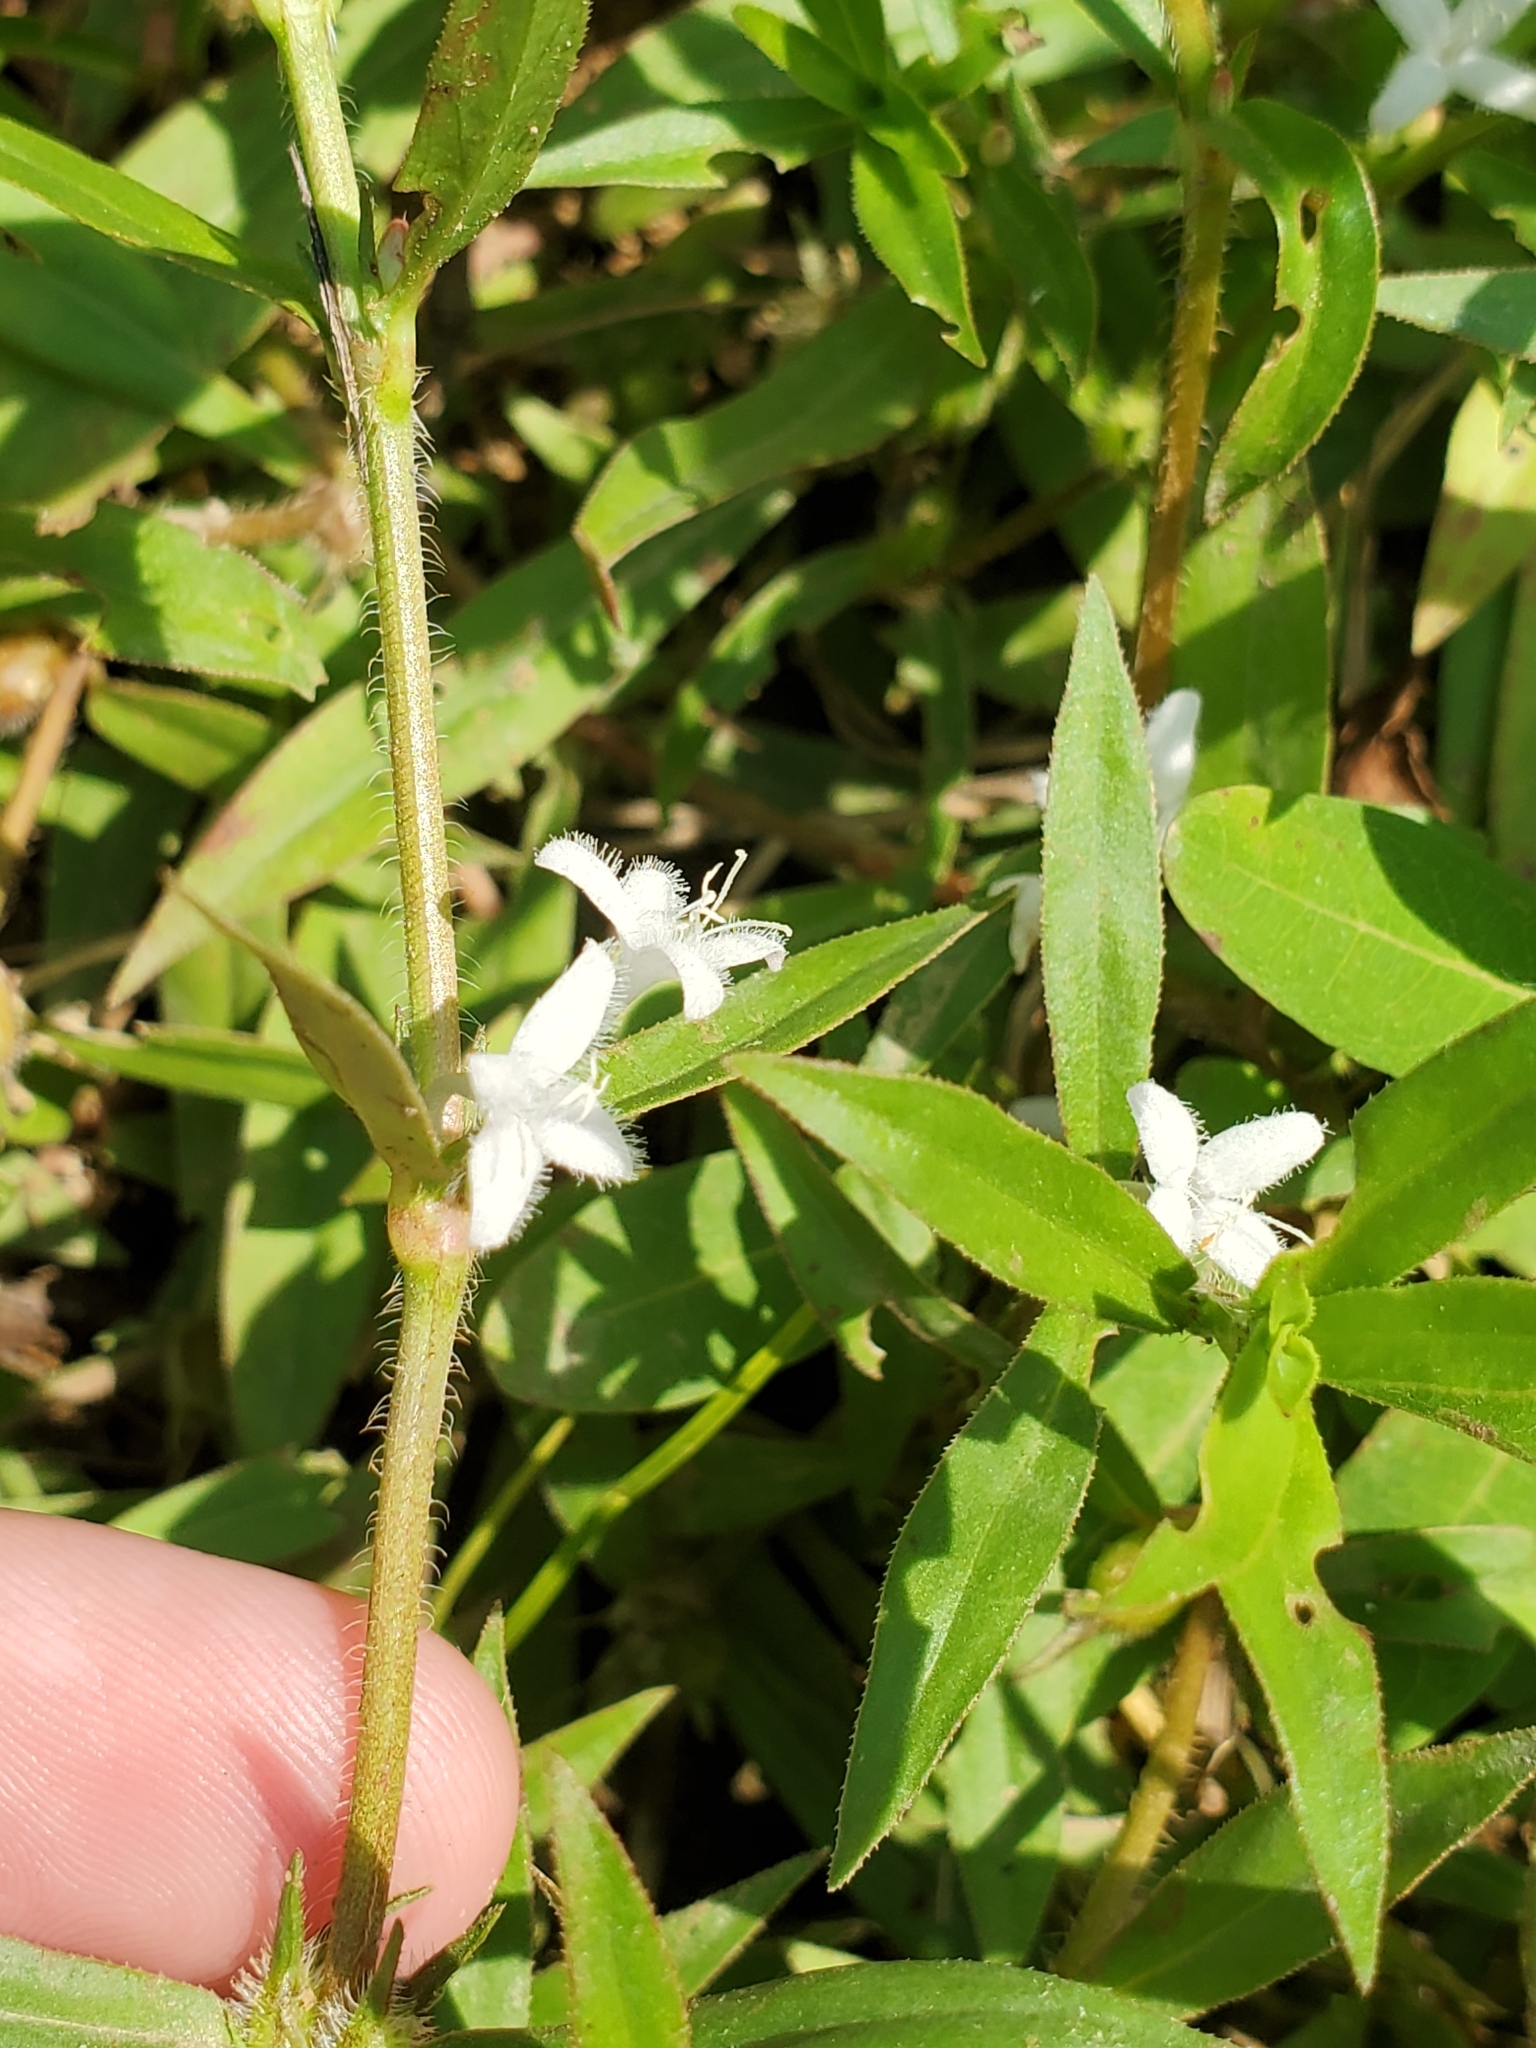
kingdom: Plantae
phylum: Tracheophyta
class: Magnoliopsida
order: Gentianales
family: Rubiaceae
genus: Diodia
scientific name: Diodia virginiana
